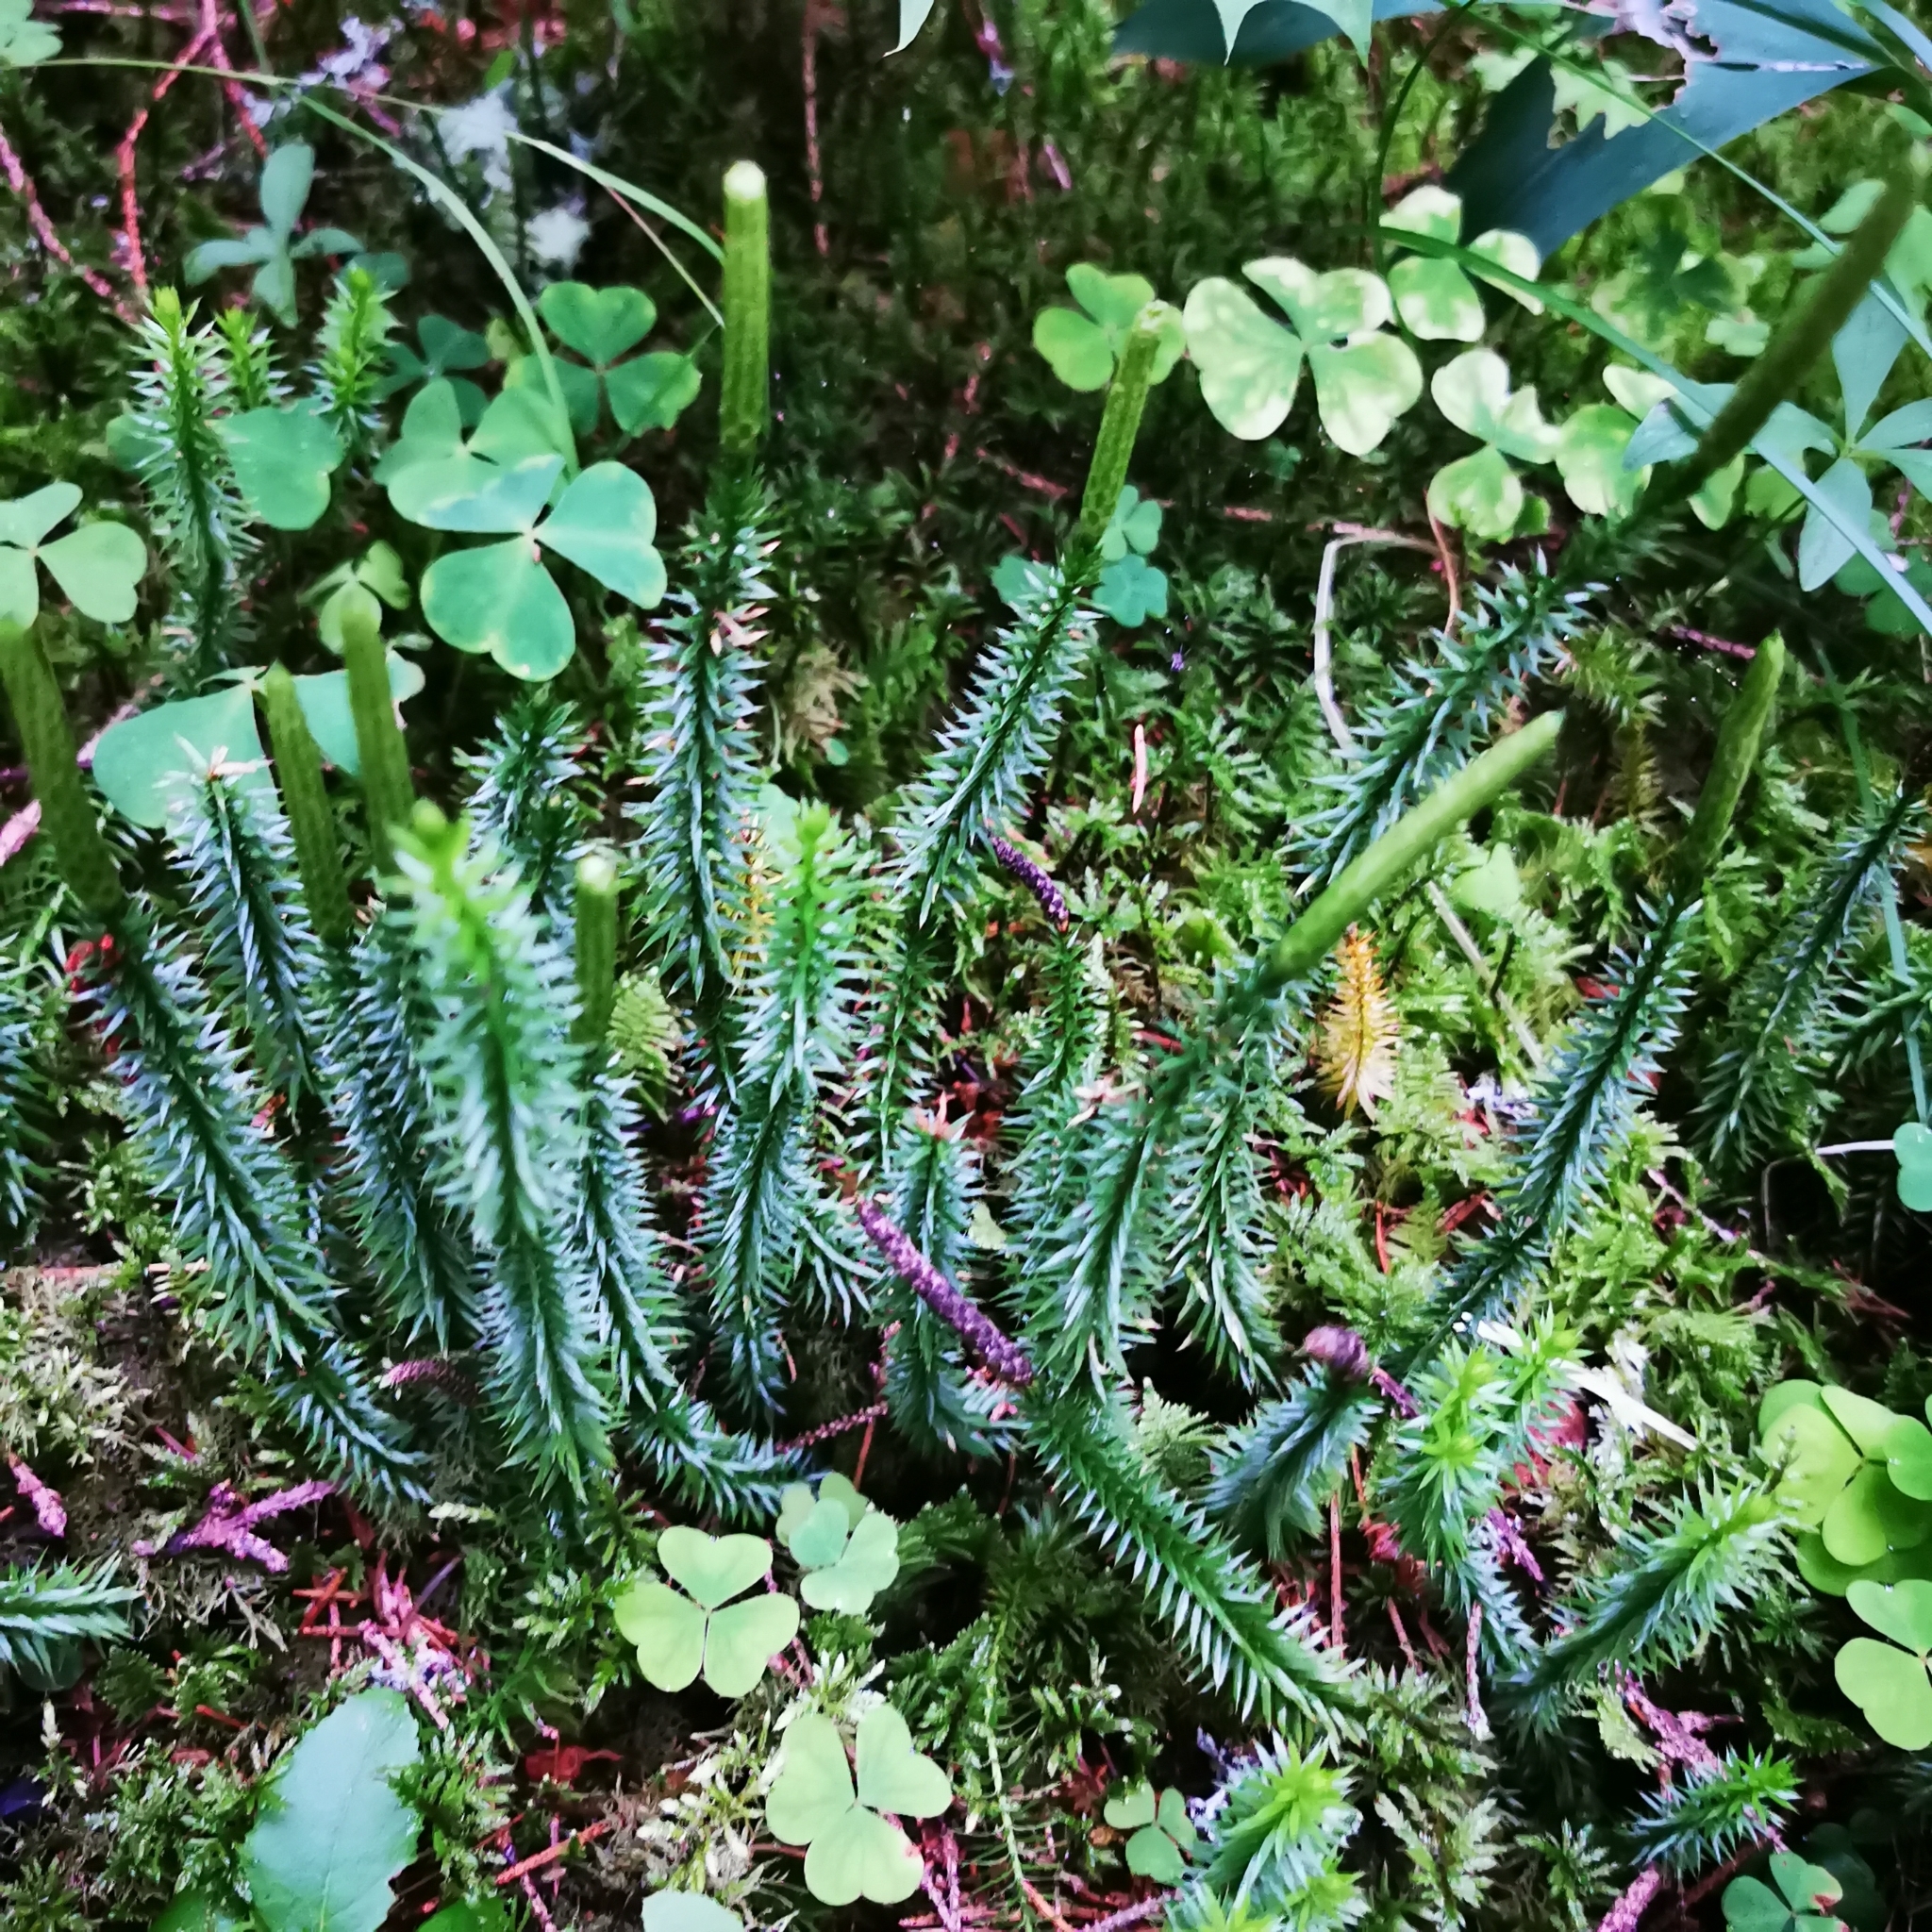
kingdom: Plantae
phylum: Tracheophyta
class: Lycopodiopsida
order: Lycopodiales
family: Lycopodiaceae
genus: Spinulum
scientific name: Spinulum annotinum
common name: Interrupted club-moss
